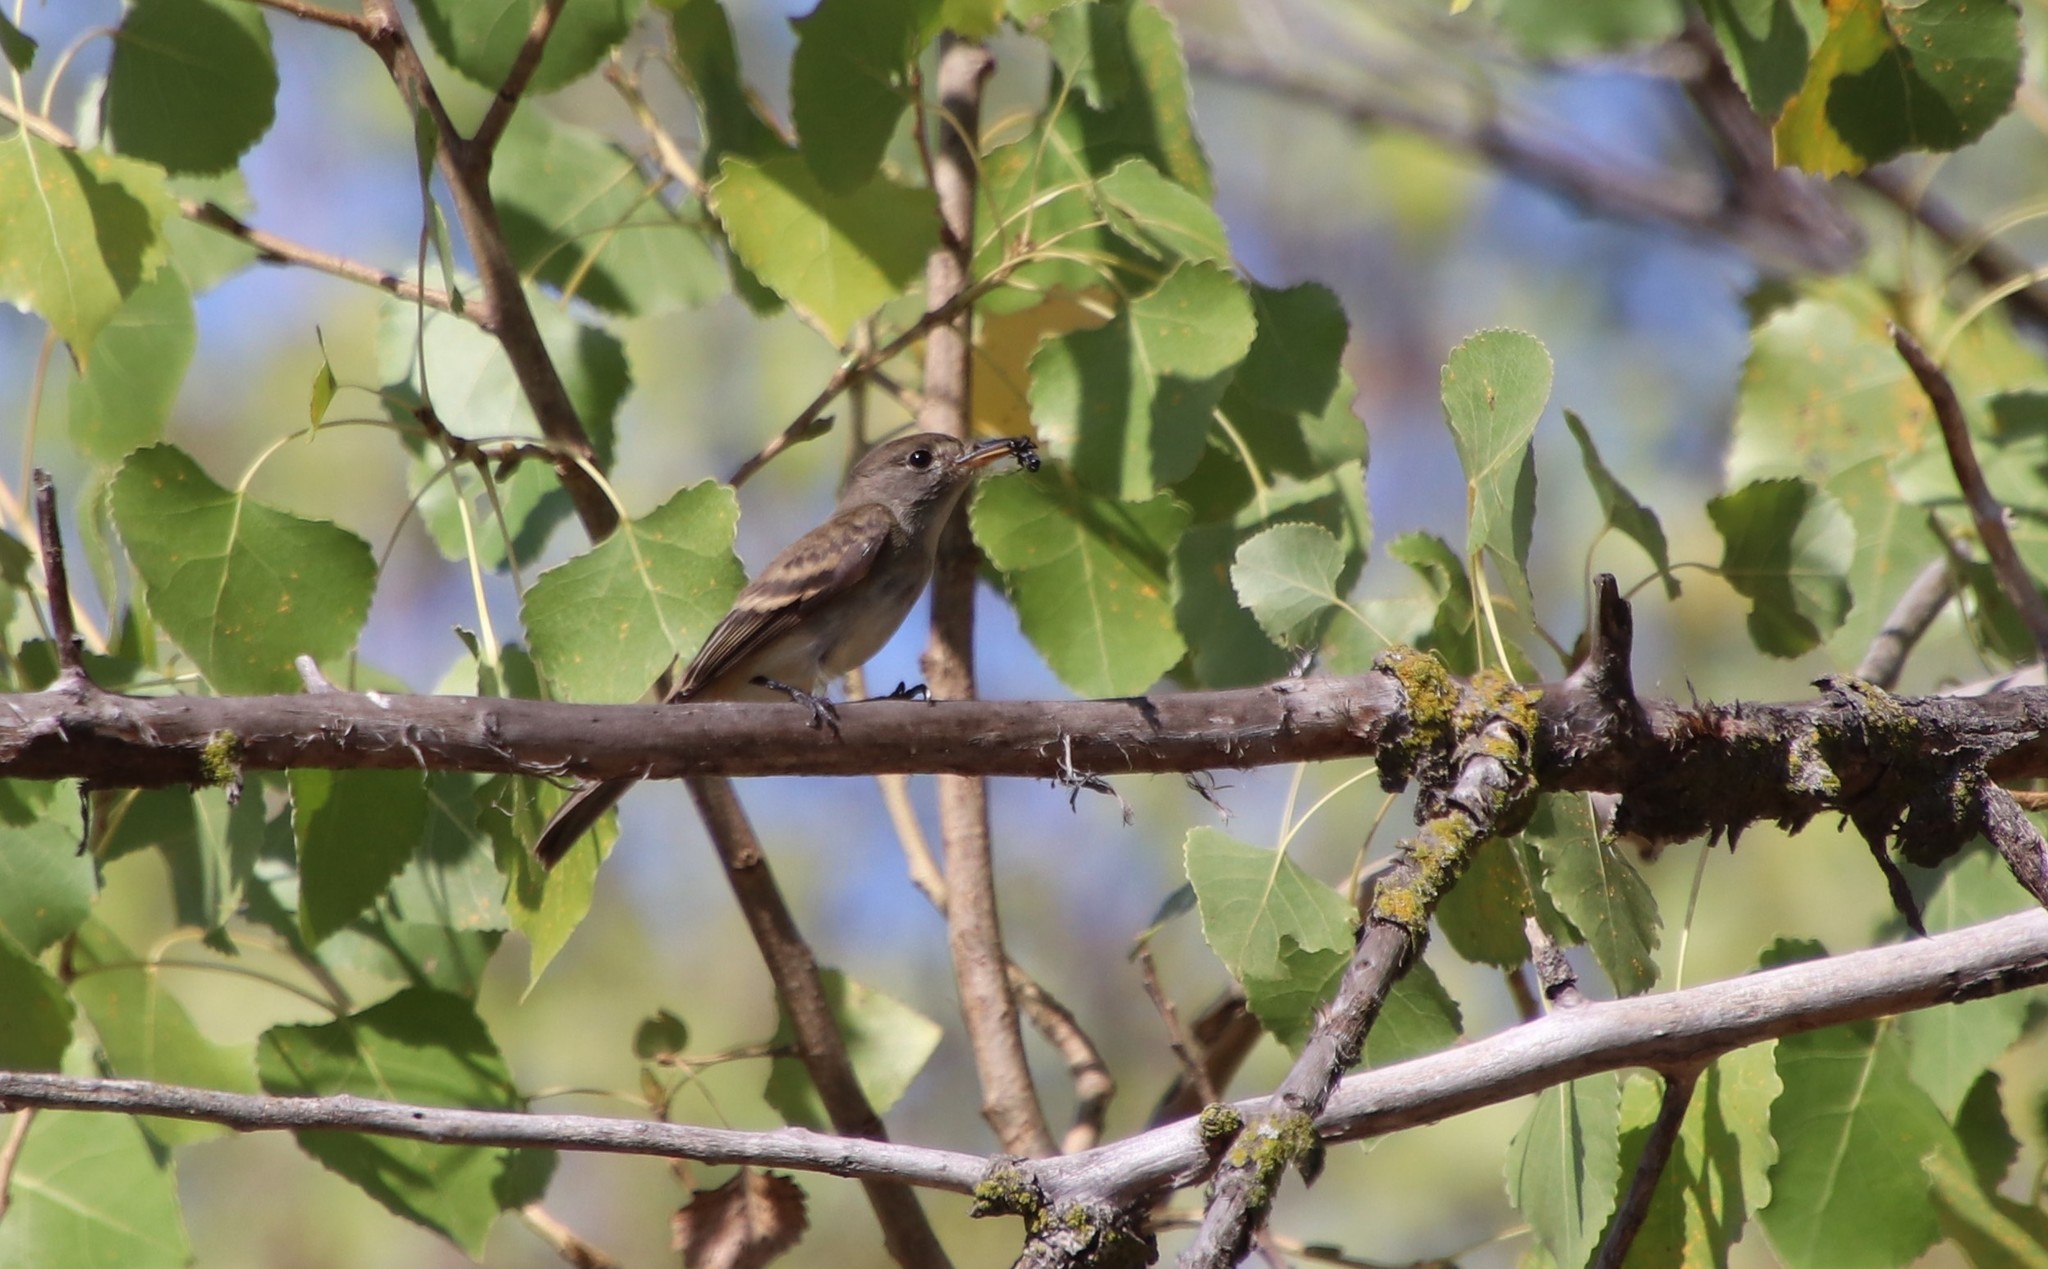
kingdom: Animalia
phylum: Chordata
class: Aves
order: Passeriformes
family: Tyrannidae
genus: Empidonax
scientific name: Empidonax traillii
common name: Willow flycatcher
